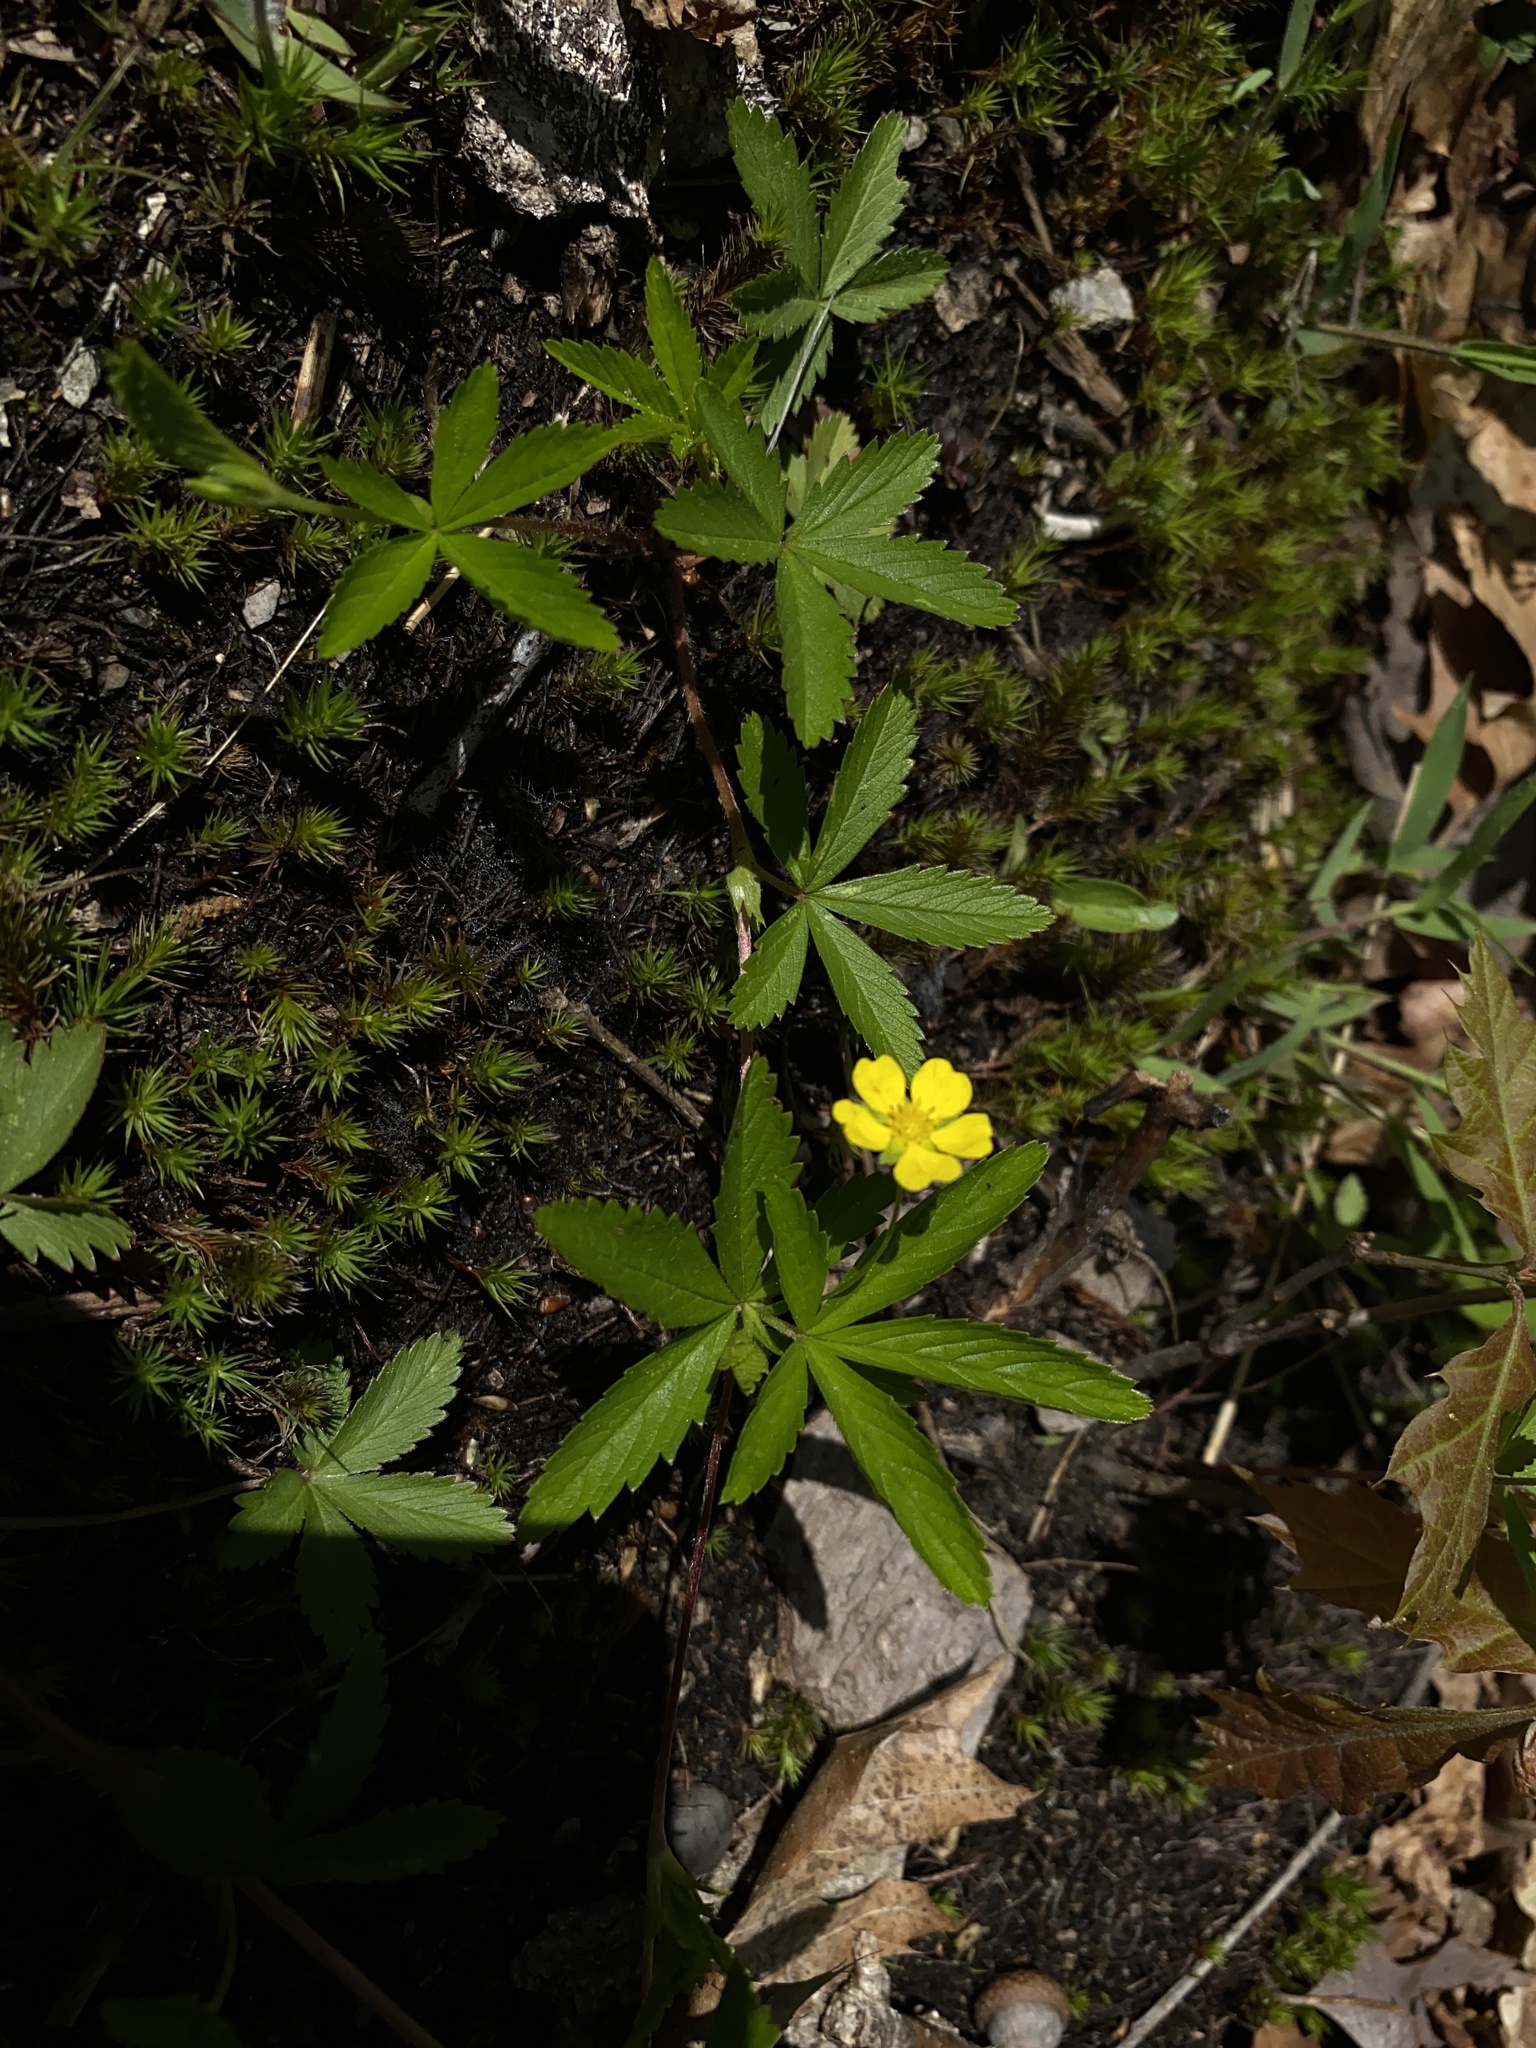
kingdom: Plantae
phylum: Tracheophyta
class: Magnoliopsida
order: Rosales
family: Rosaceae
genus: Potentilla
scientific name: Potentilla simplex
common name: Old field cinquefoil
